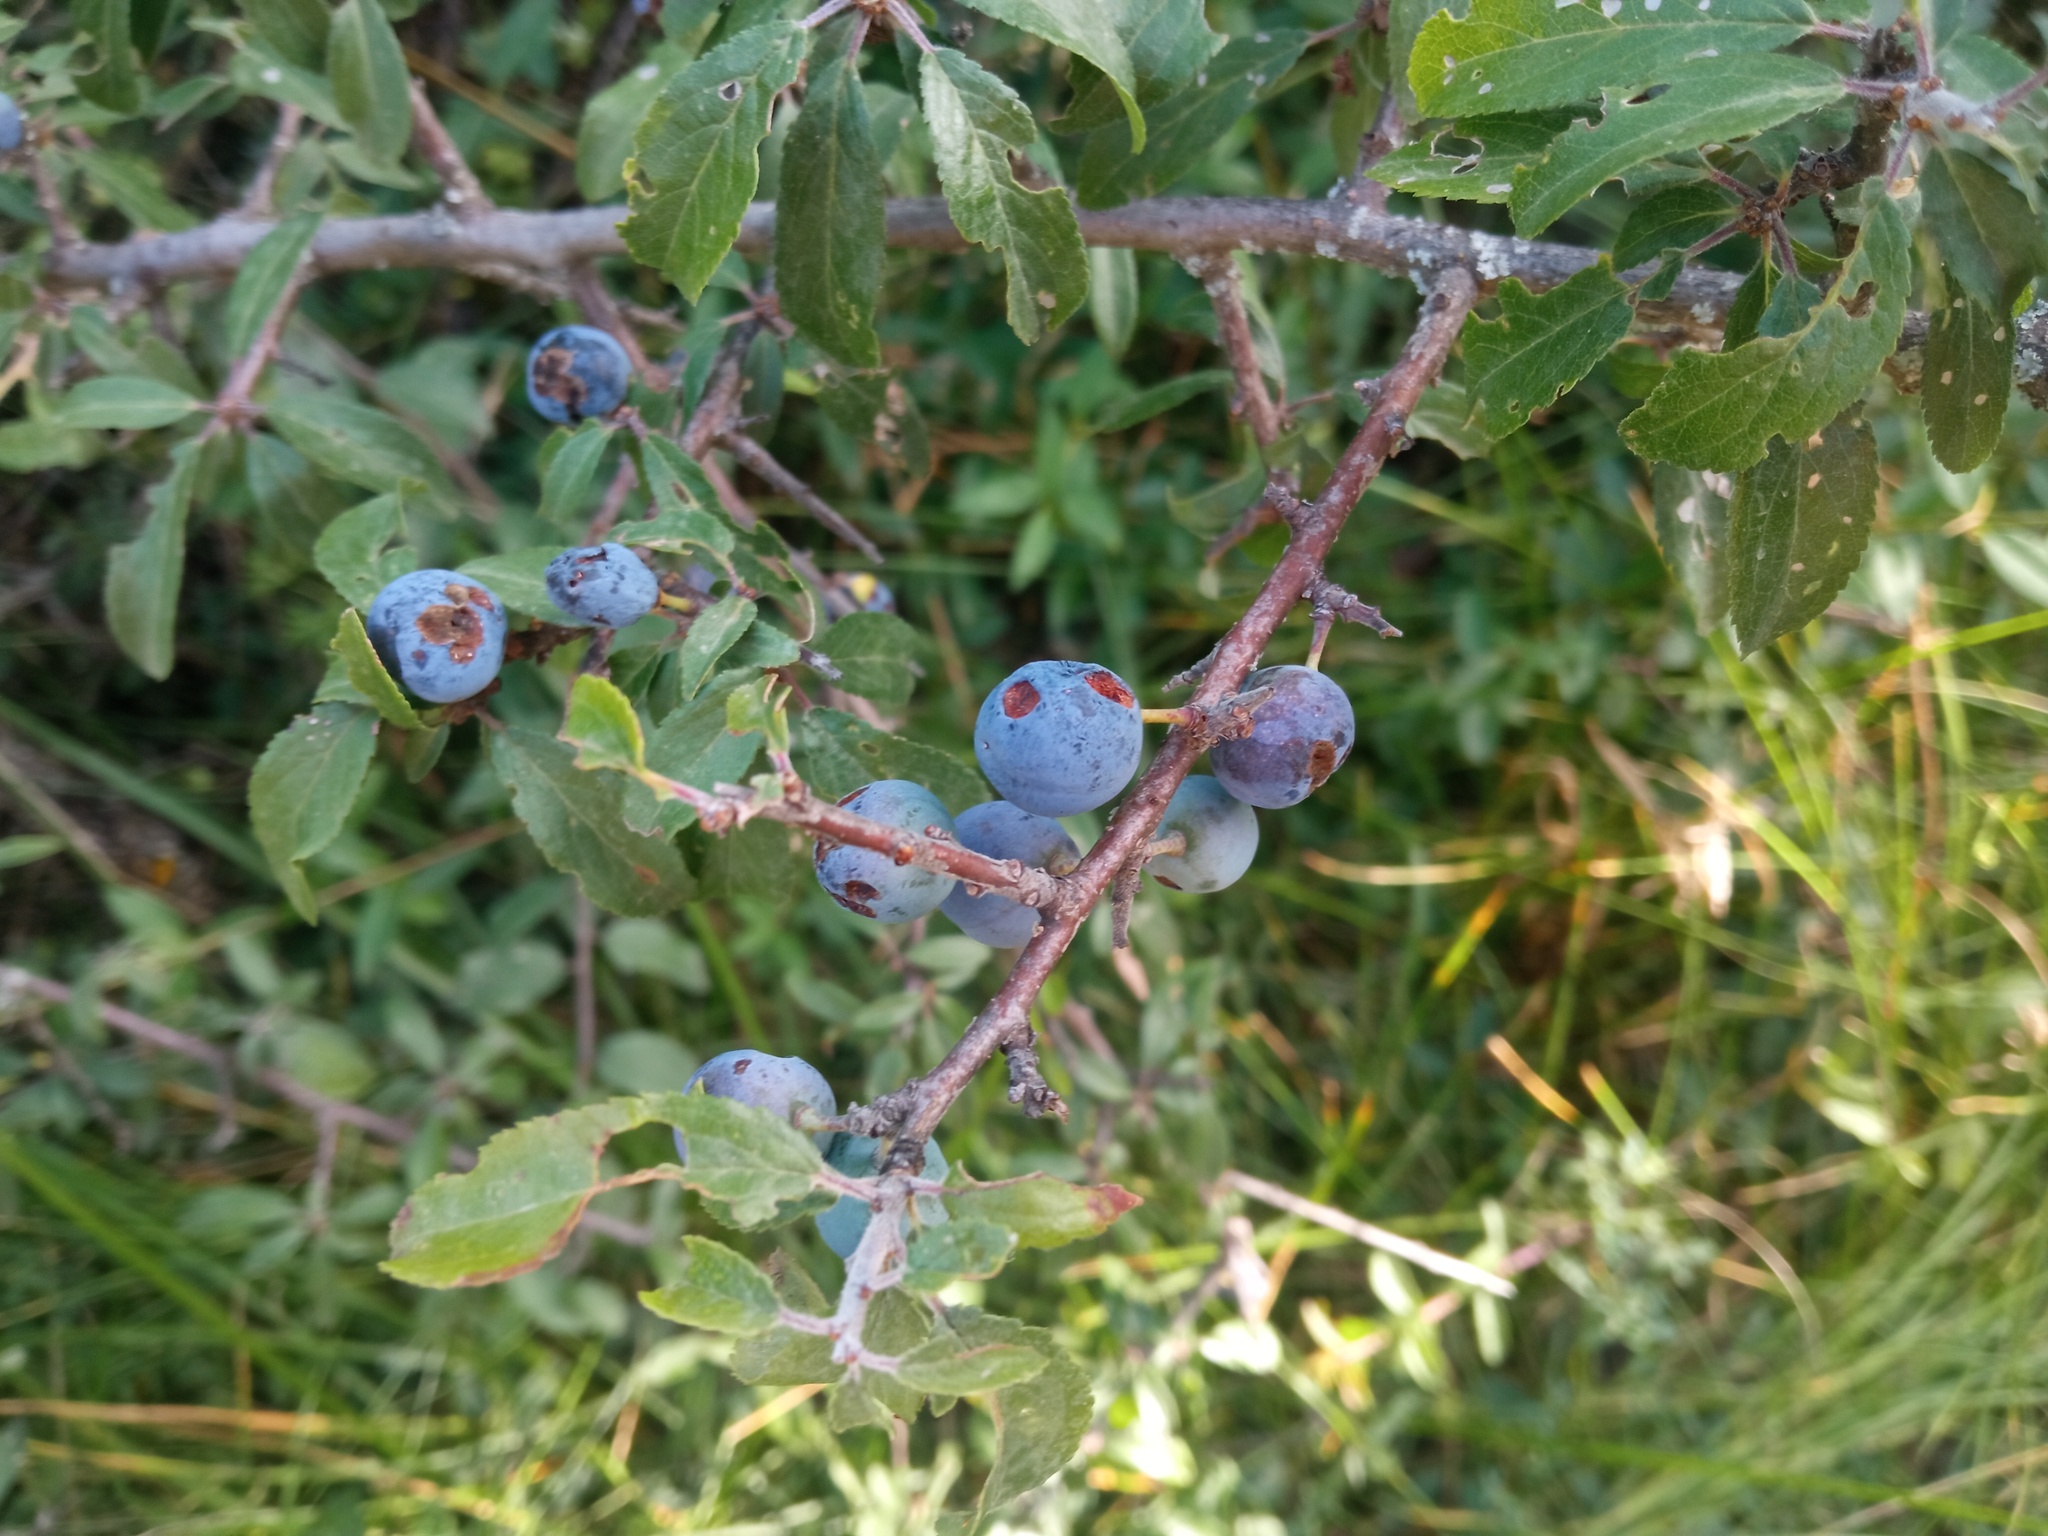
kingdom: Plantae
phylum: Tracheophyta
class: Magnoliopsida
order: Rosales
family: Rosaceae
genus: Prunus
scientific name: Prunus spinosa
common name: Blackthorn
